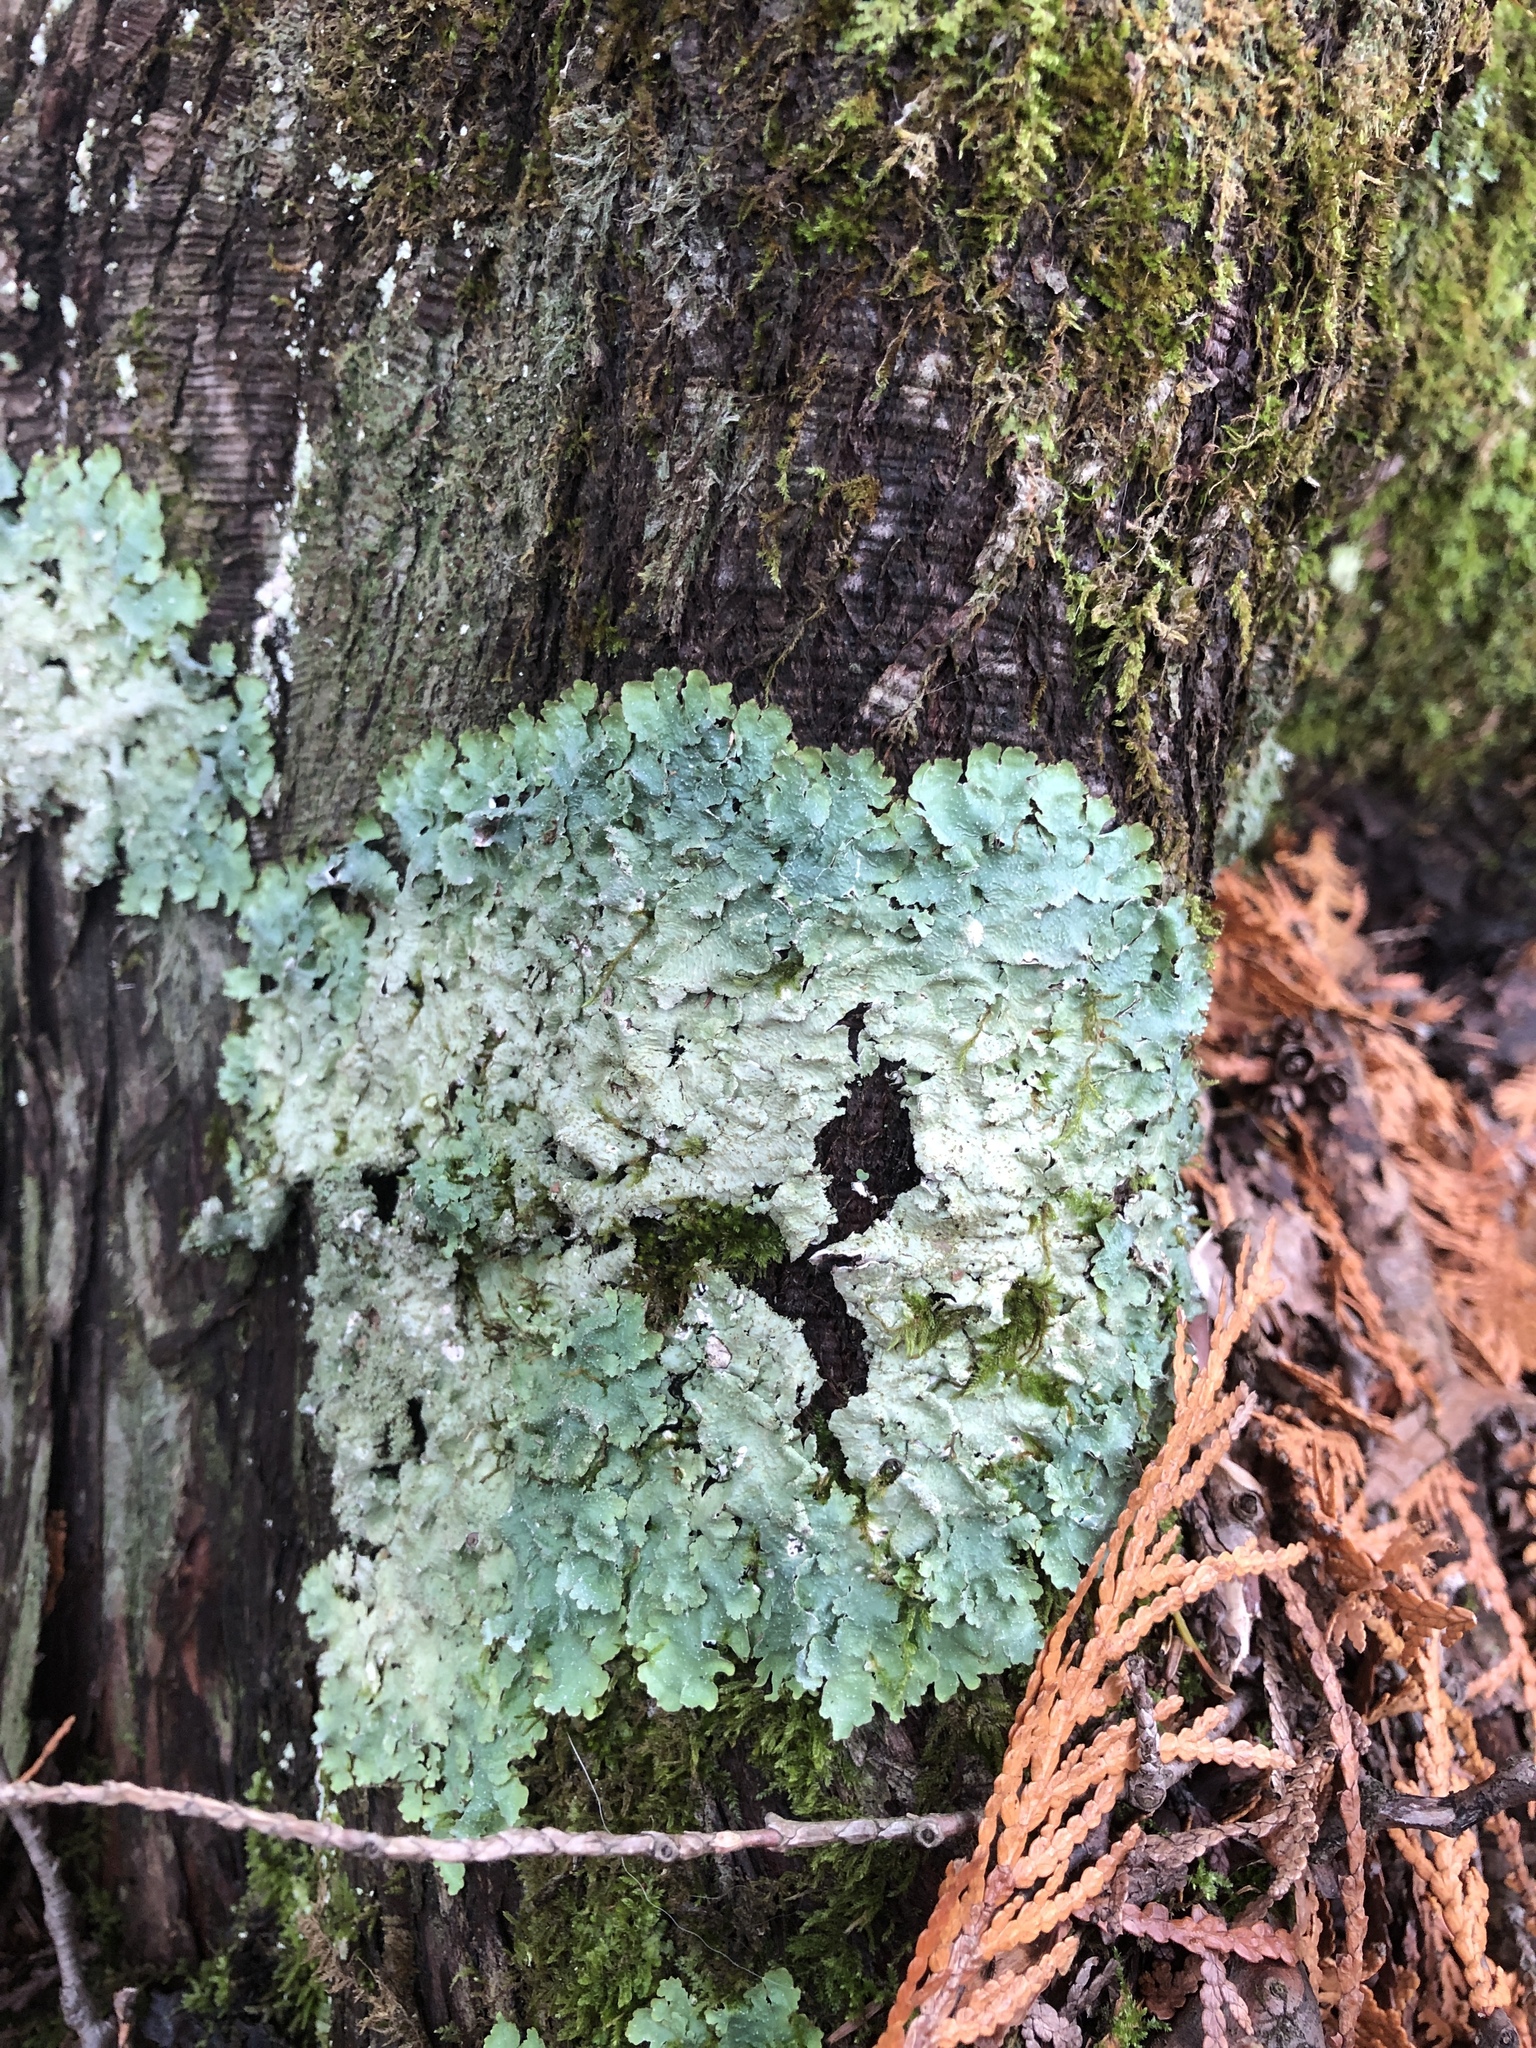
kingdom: Fungi
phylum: Ascomycota
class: Lecanoromycetes
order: Lecanorales
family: Parmeliaceae
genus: Punctelia
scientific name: Punctelia rudecta
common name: Rough speckled shield lichen
